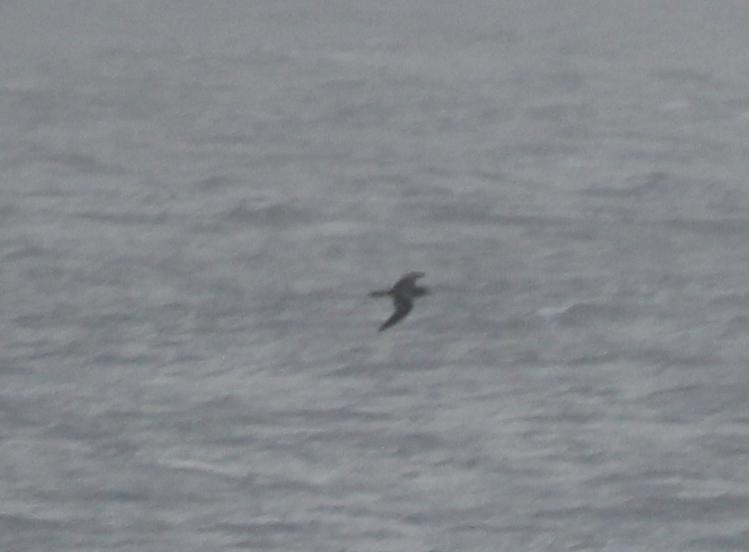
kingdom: Animalia
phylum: Chordata
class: Aves
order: Procellariiformes
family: Procellariidae
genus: Puffinus
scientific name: Puffinus pacificus
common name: Wedge-tailed shearwater
